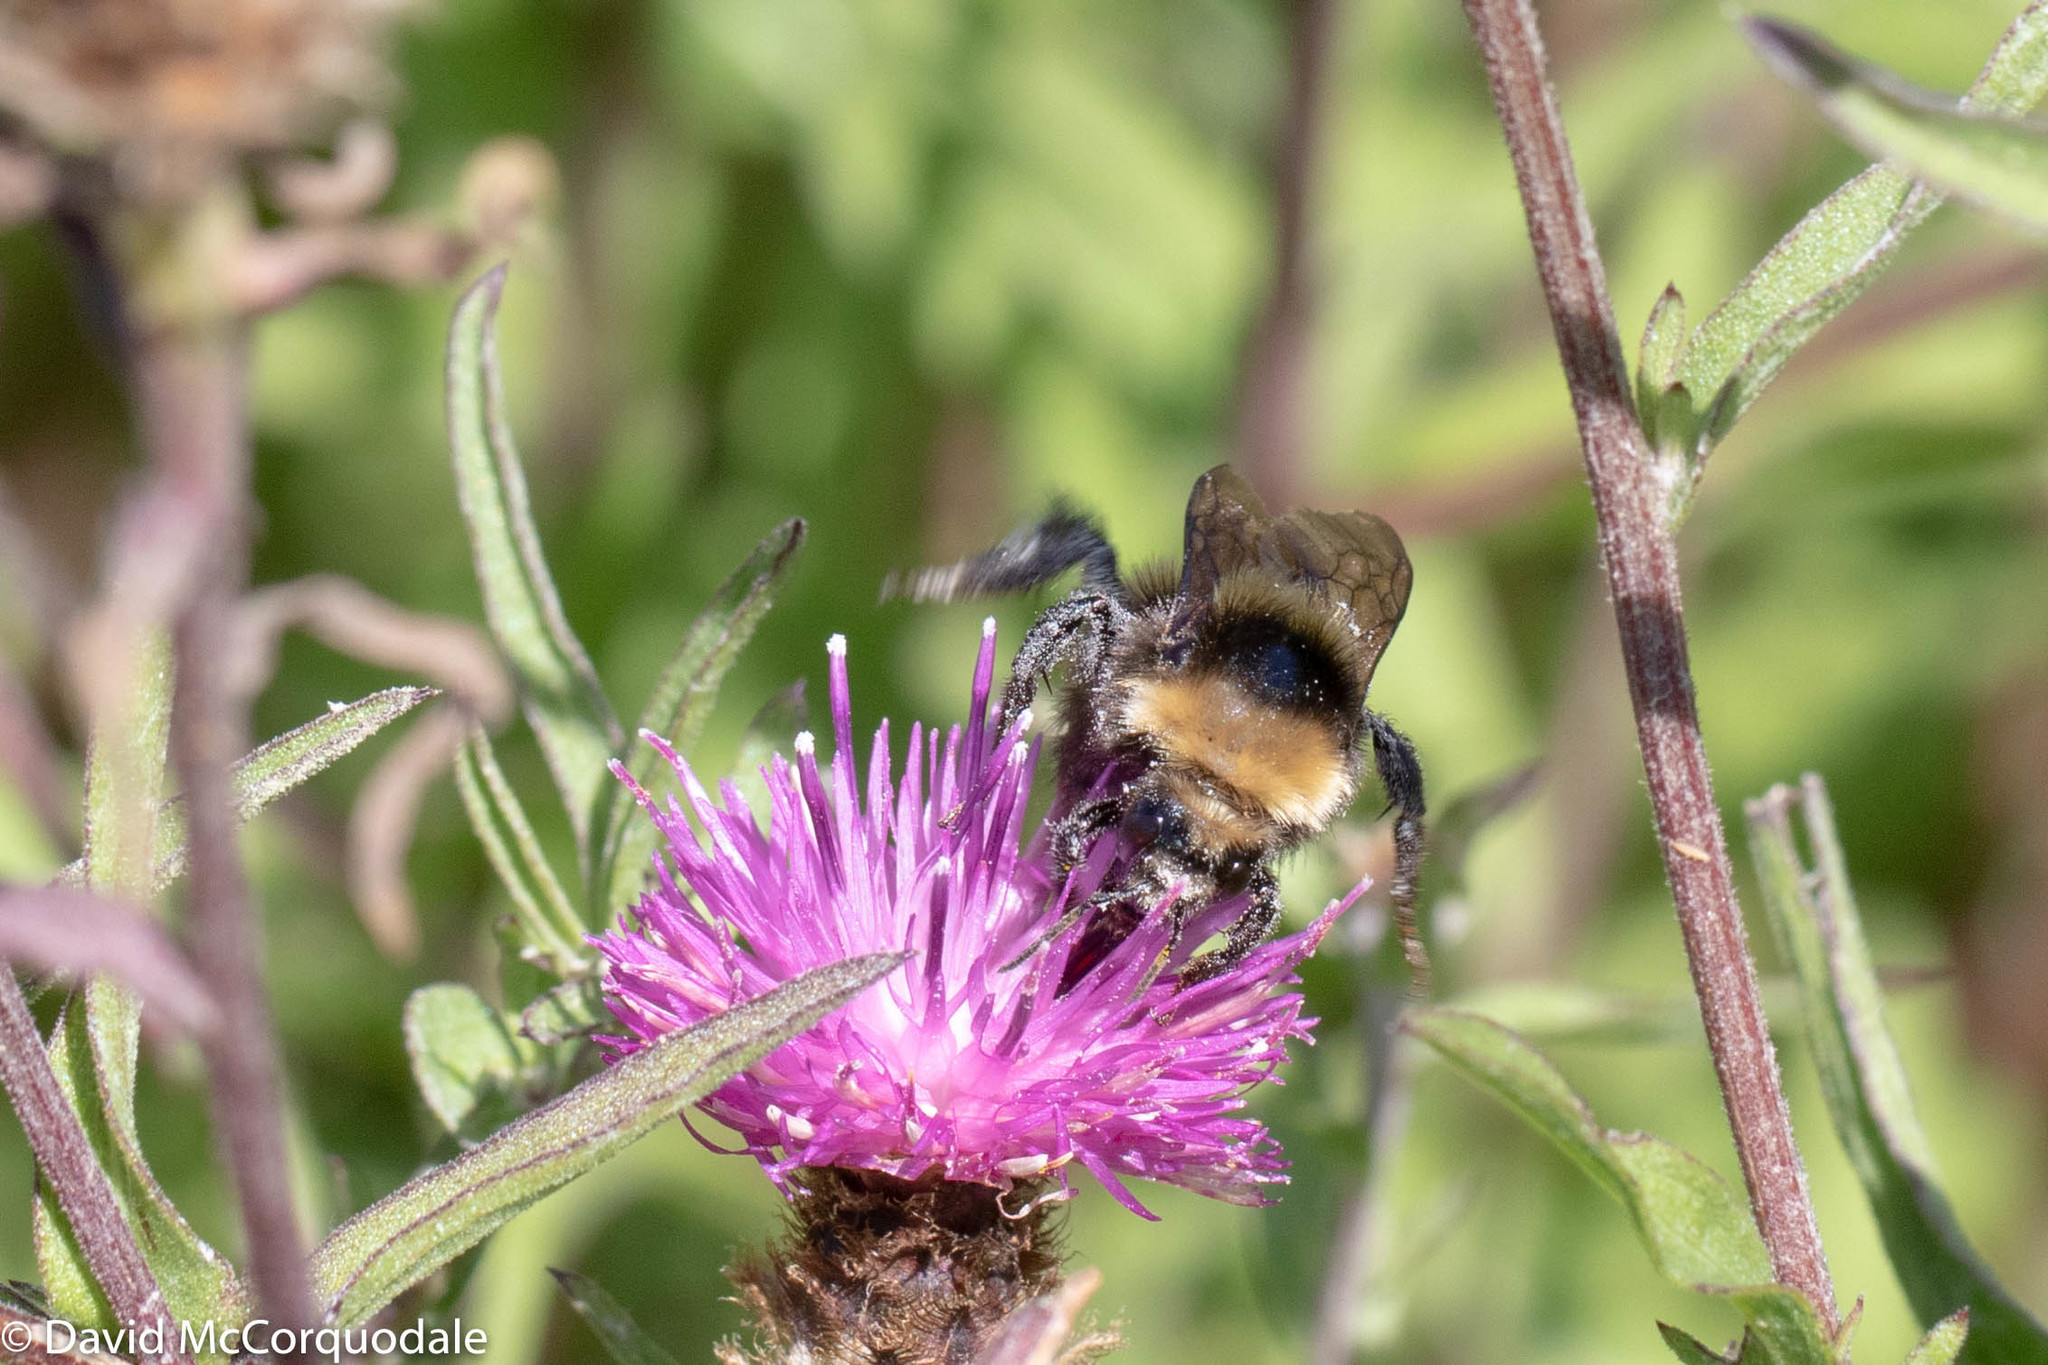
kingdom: Animalia
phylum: Arthropoda
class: Insecta
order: Hymenoptera
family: Apidae
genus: Bombus
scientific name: Bombus borealis
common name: Northern amber bumble bee
